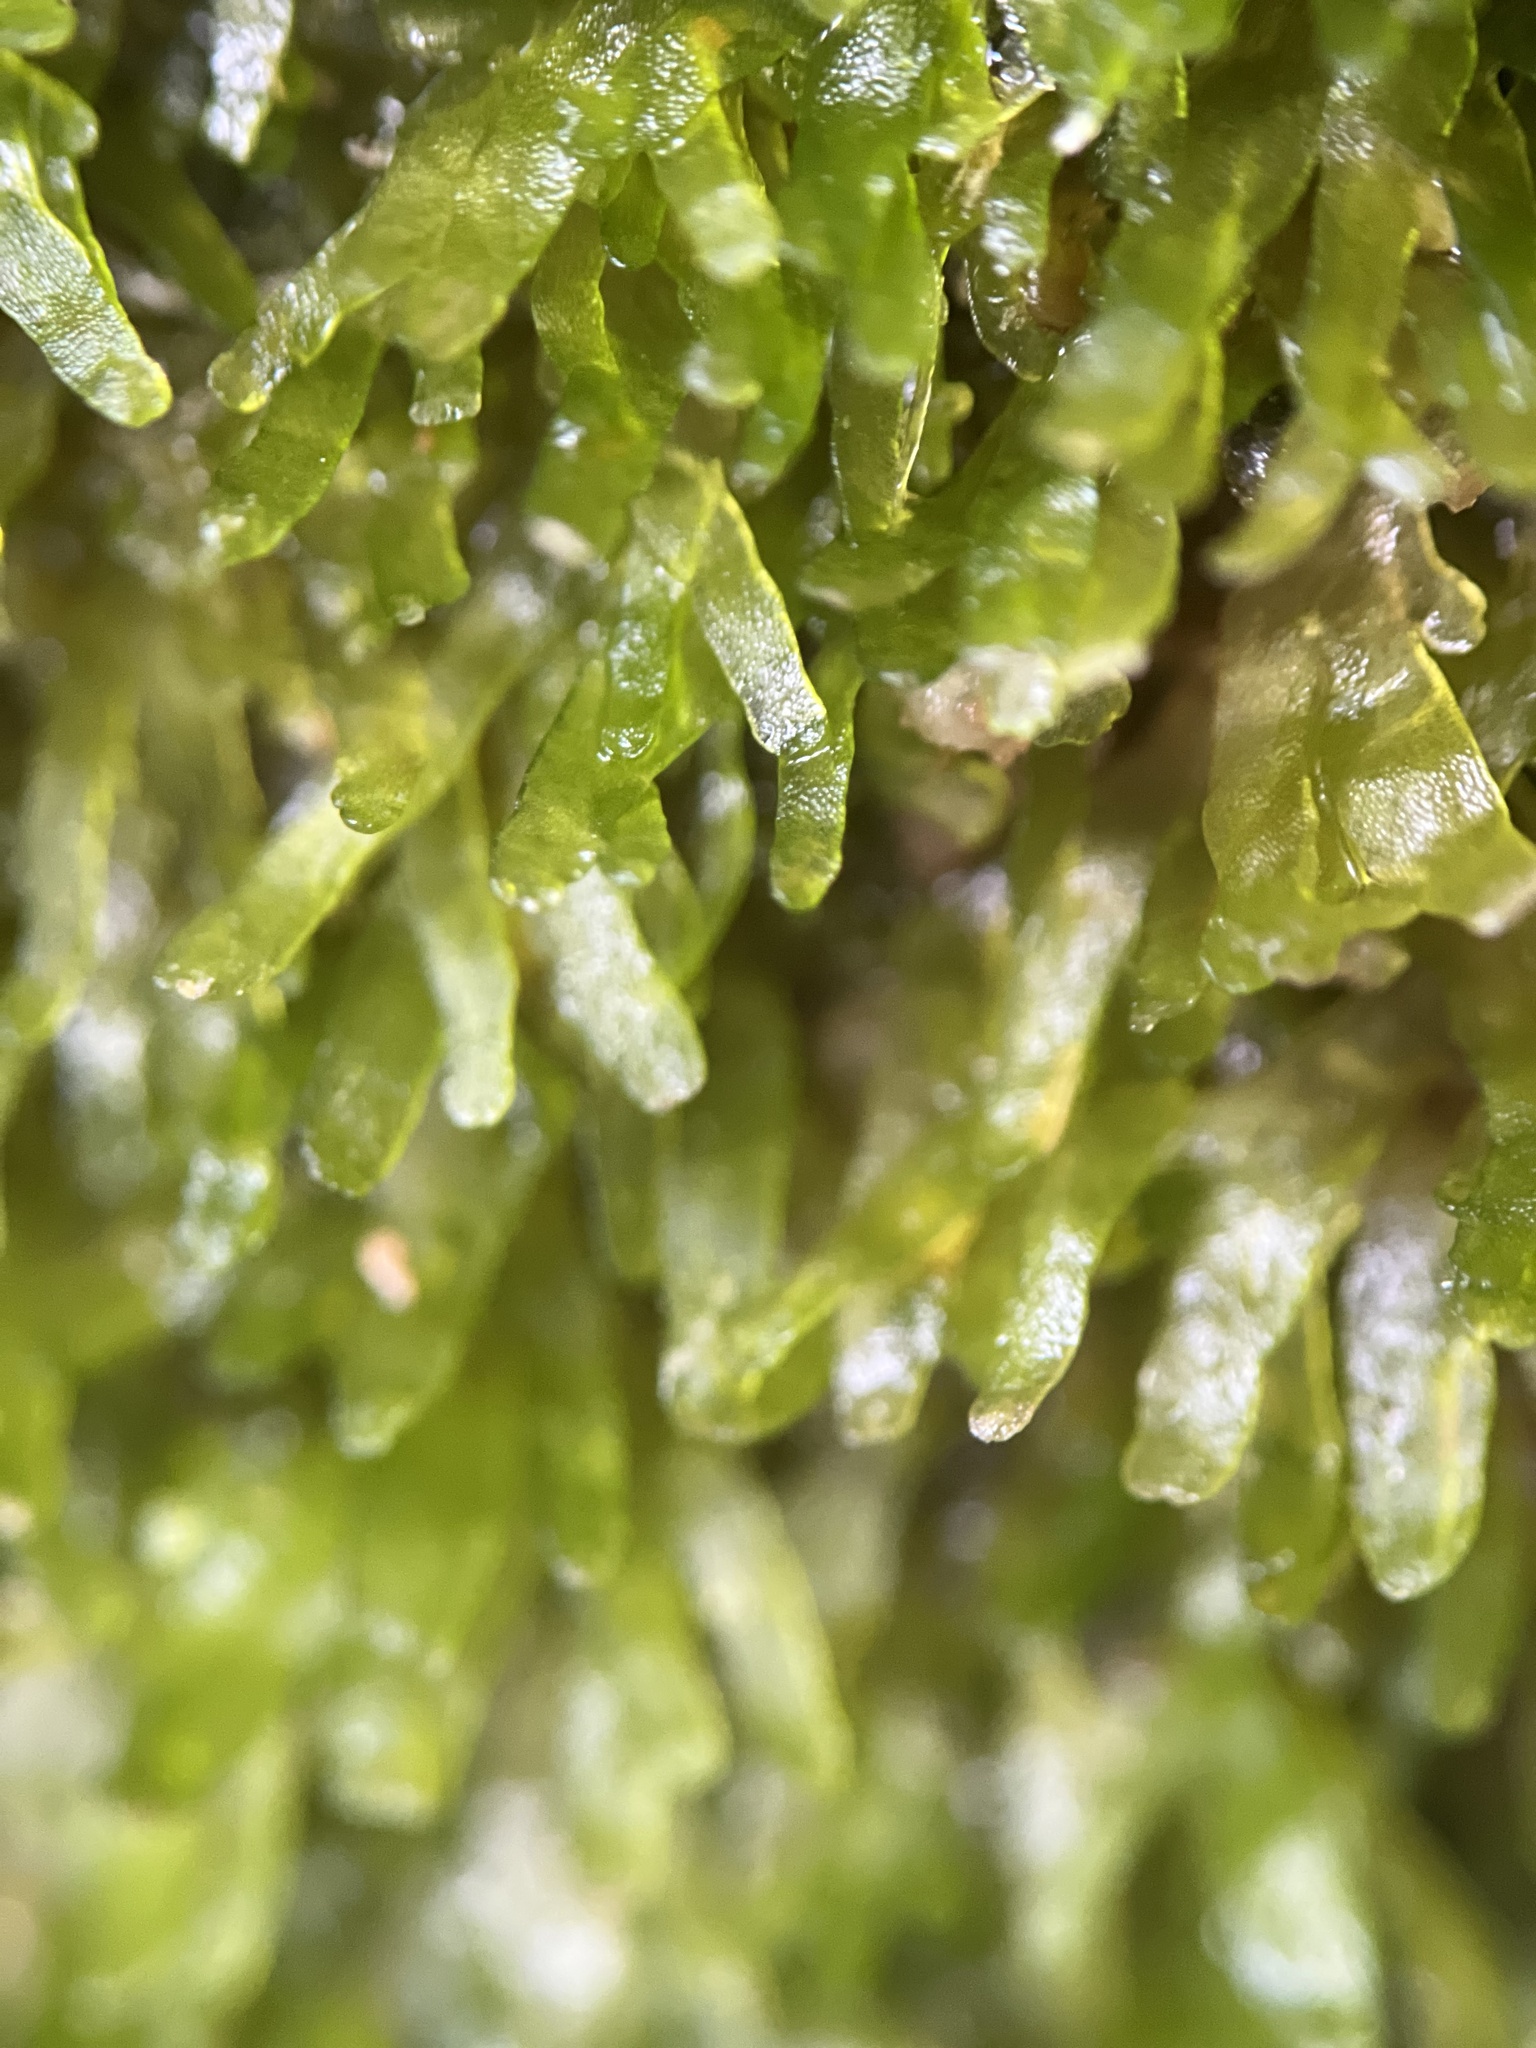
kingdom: Plantae
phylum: Marchantiophyta
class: Jungermanniopsida
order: Metzgeriales
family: Aneuraceae
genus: Riccardia
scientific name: Riccardia palmata
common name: Palmate germanderwort
